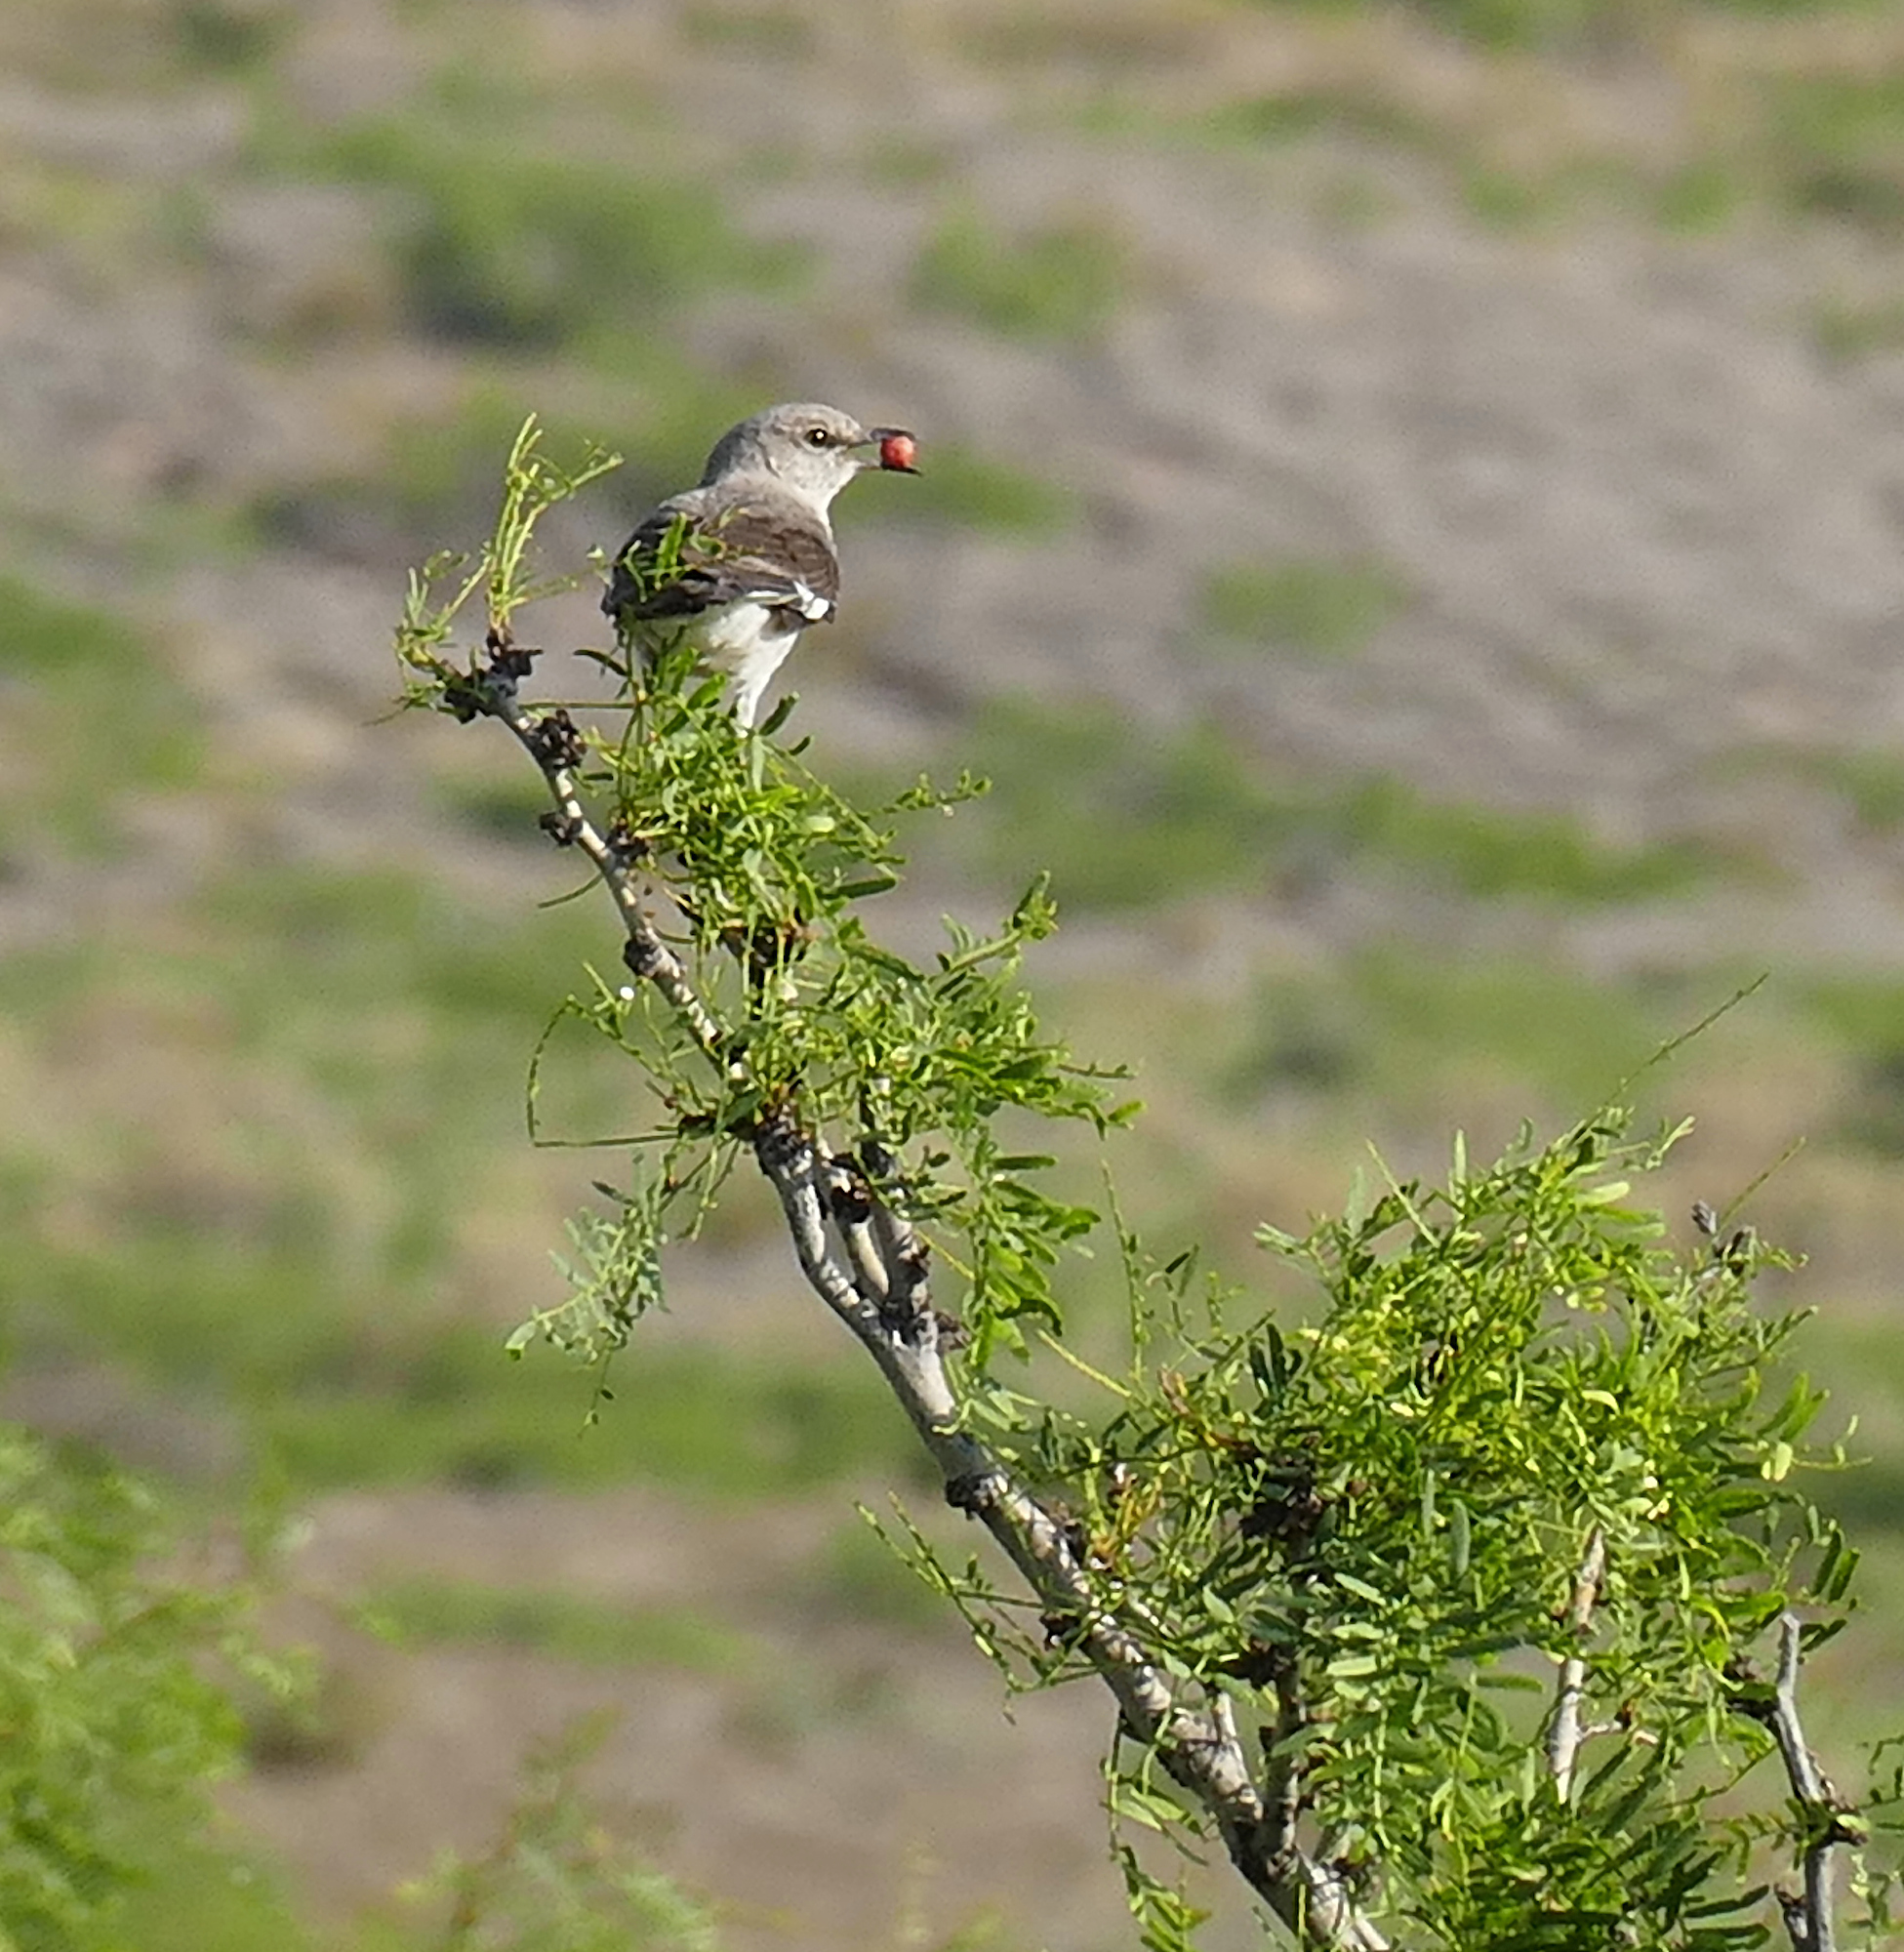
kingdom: Animalia
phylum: Chordata
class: Aves
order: Passeriformes
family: Mimidae
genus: Mimus
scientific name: Mimus polyglottos
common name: Northern mockingbird
